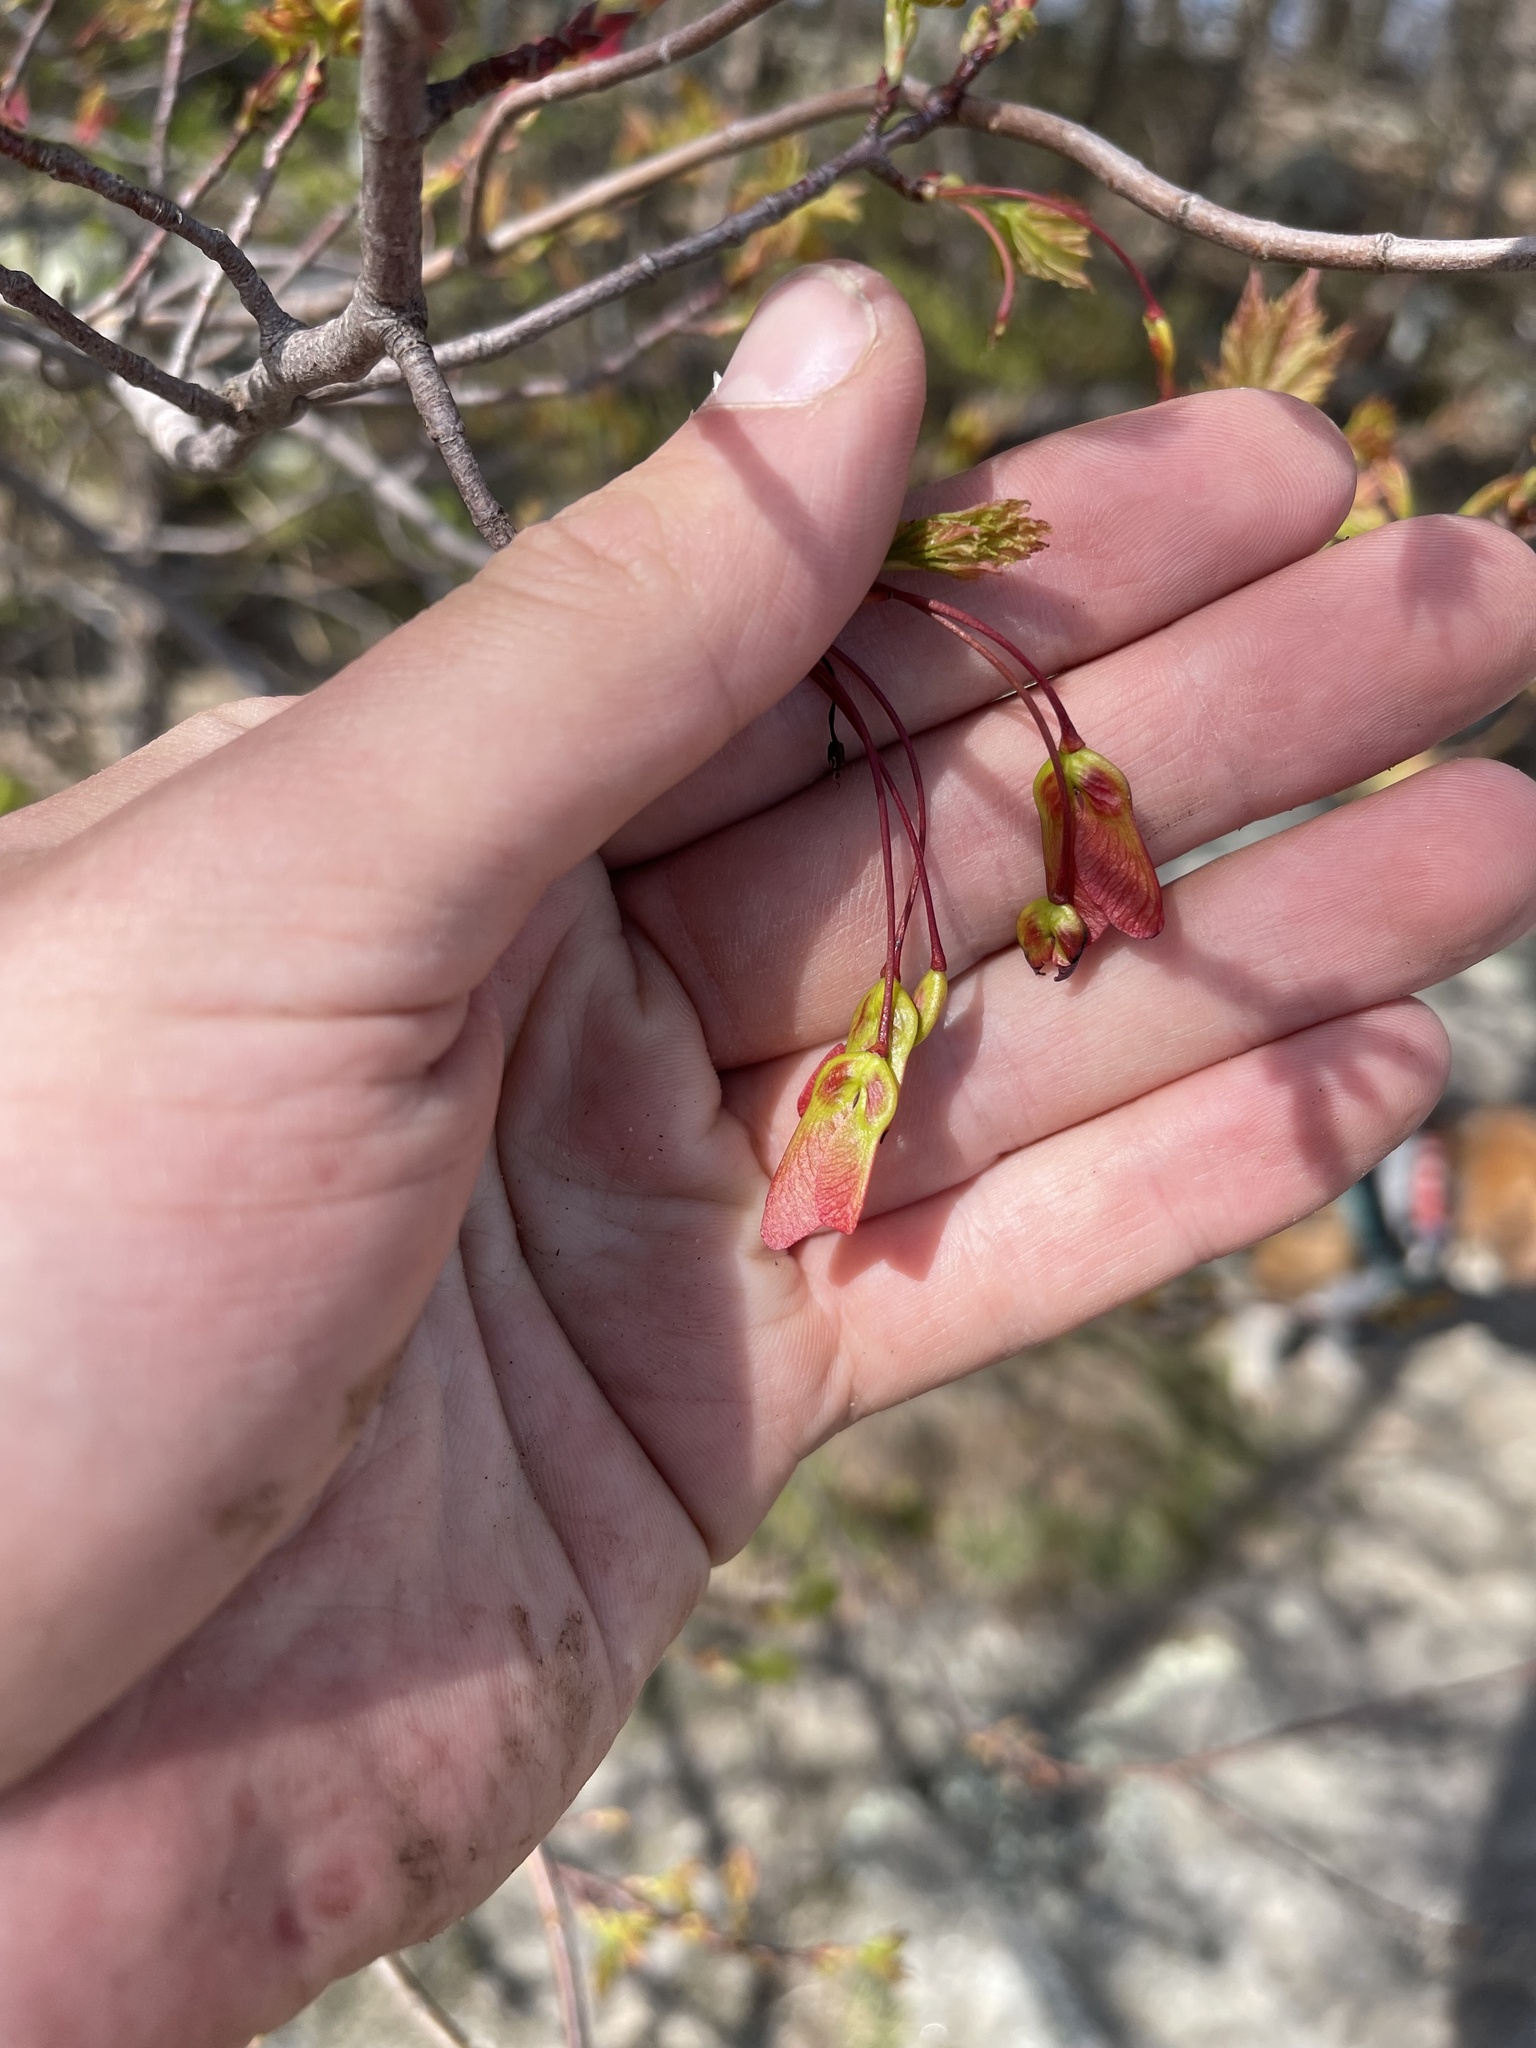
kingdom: Plantae
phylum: Tracheophyta
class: Magnoliopsida
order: Sapindales
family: Sapindaceae
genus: Acer
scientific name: Acer rubrum
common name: Red maple
